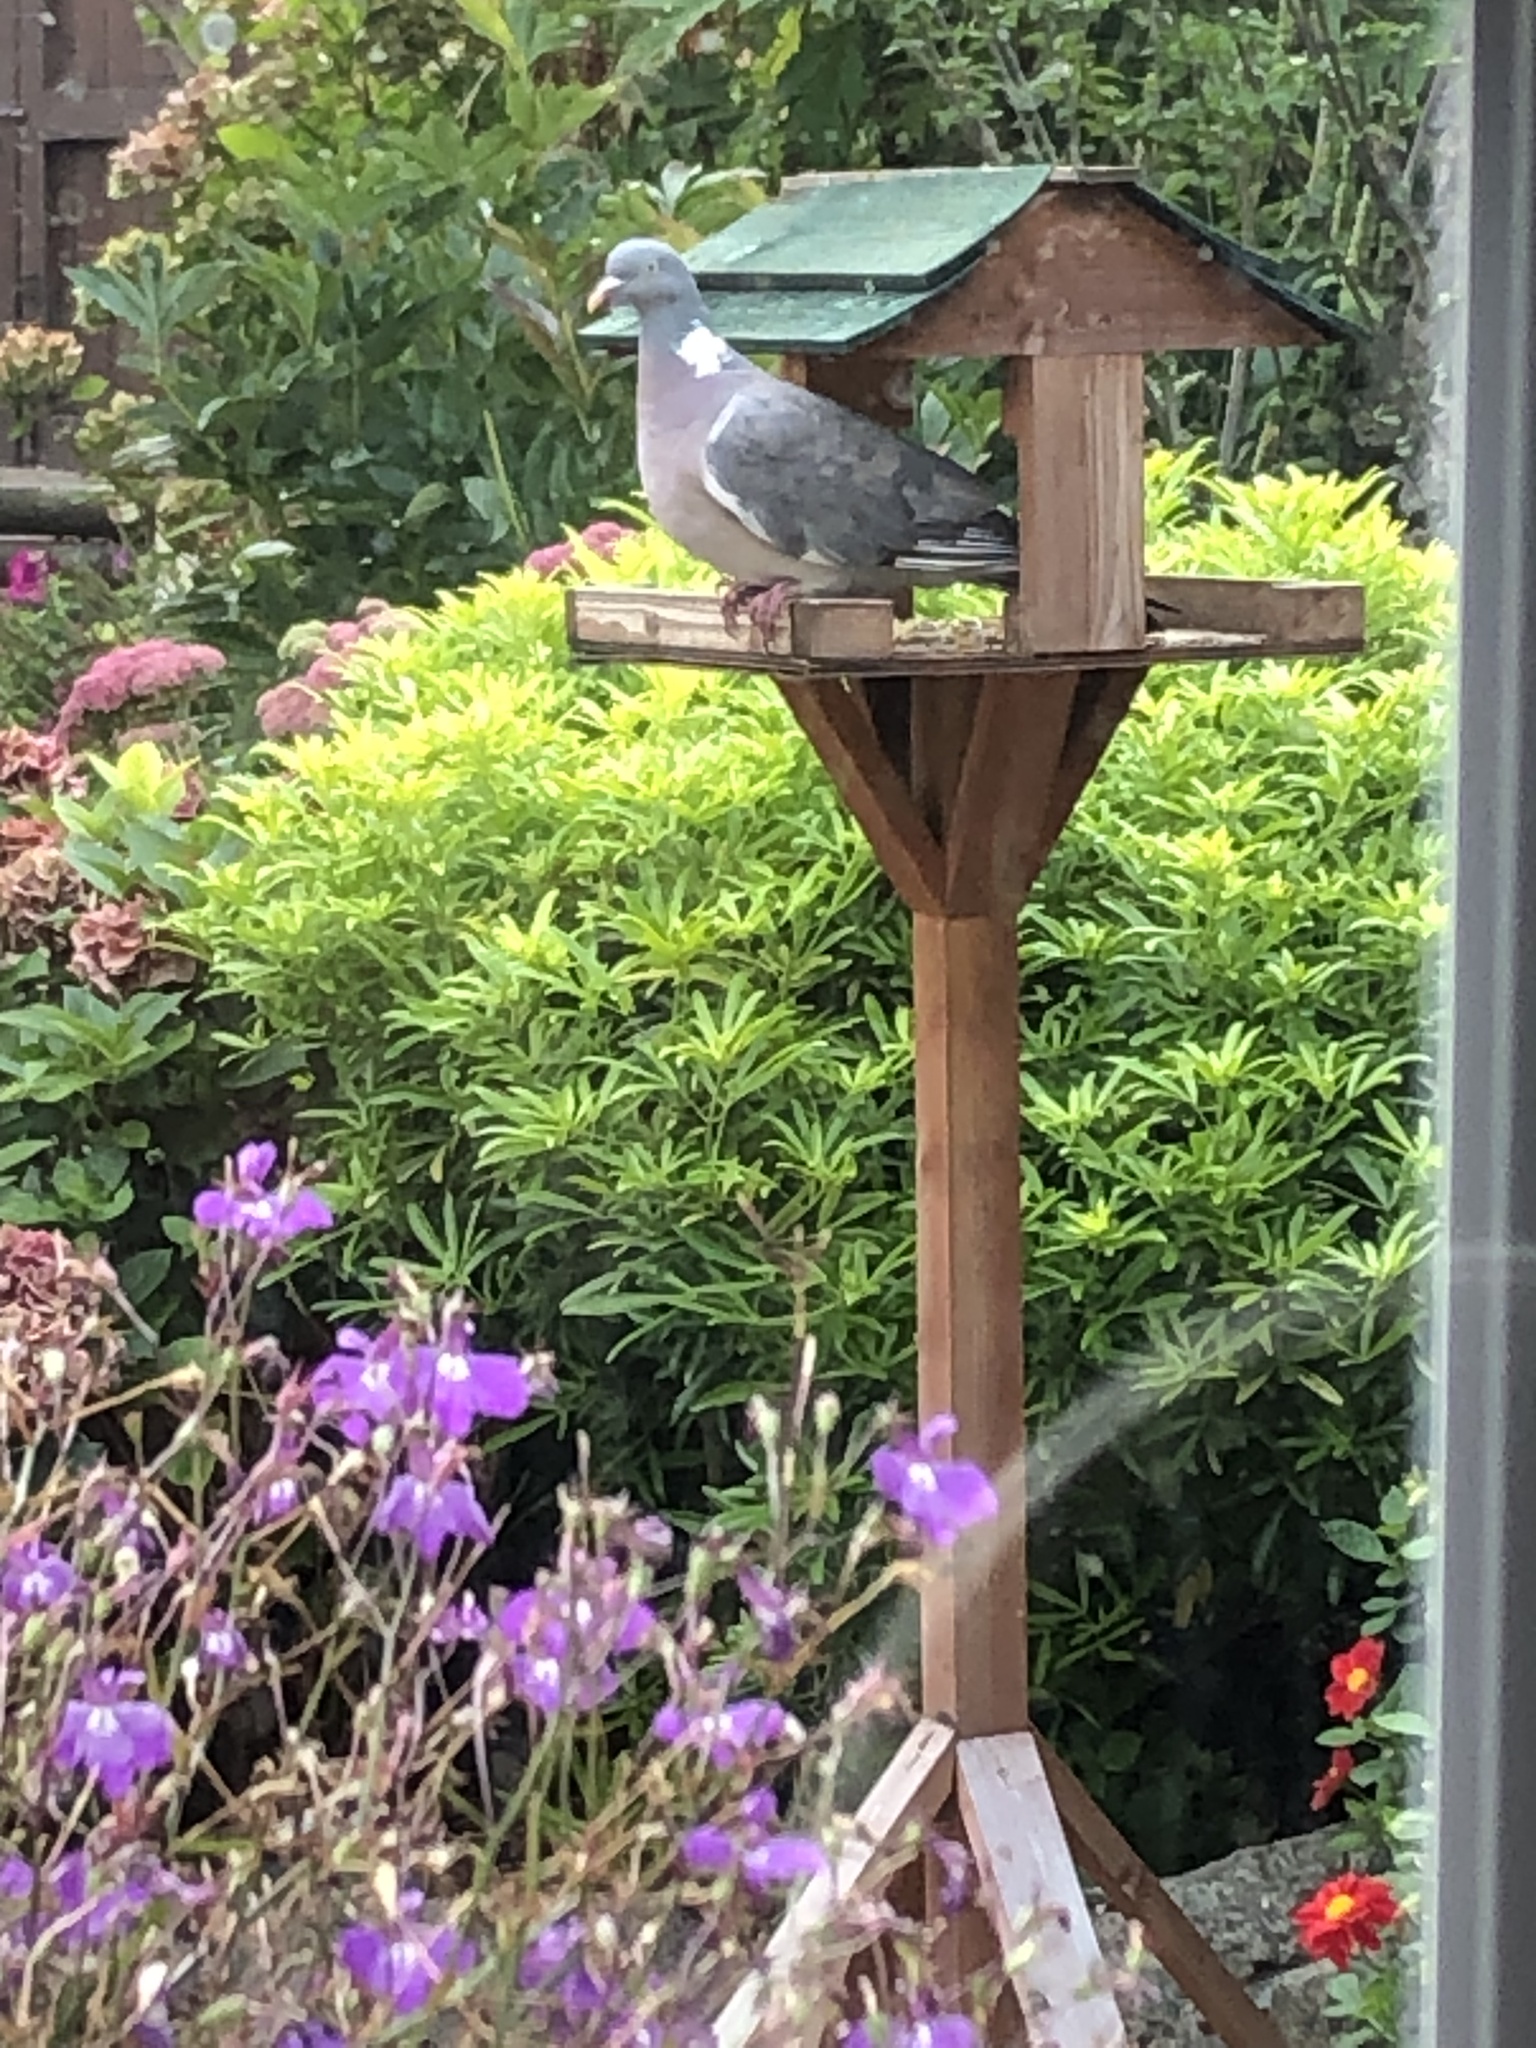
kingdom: Animalia
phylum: Chordata
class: Aves
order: Columbiformes
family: Columbidae
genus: Columba
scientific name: Columba palumbus
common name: Common wood pigeon
